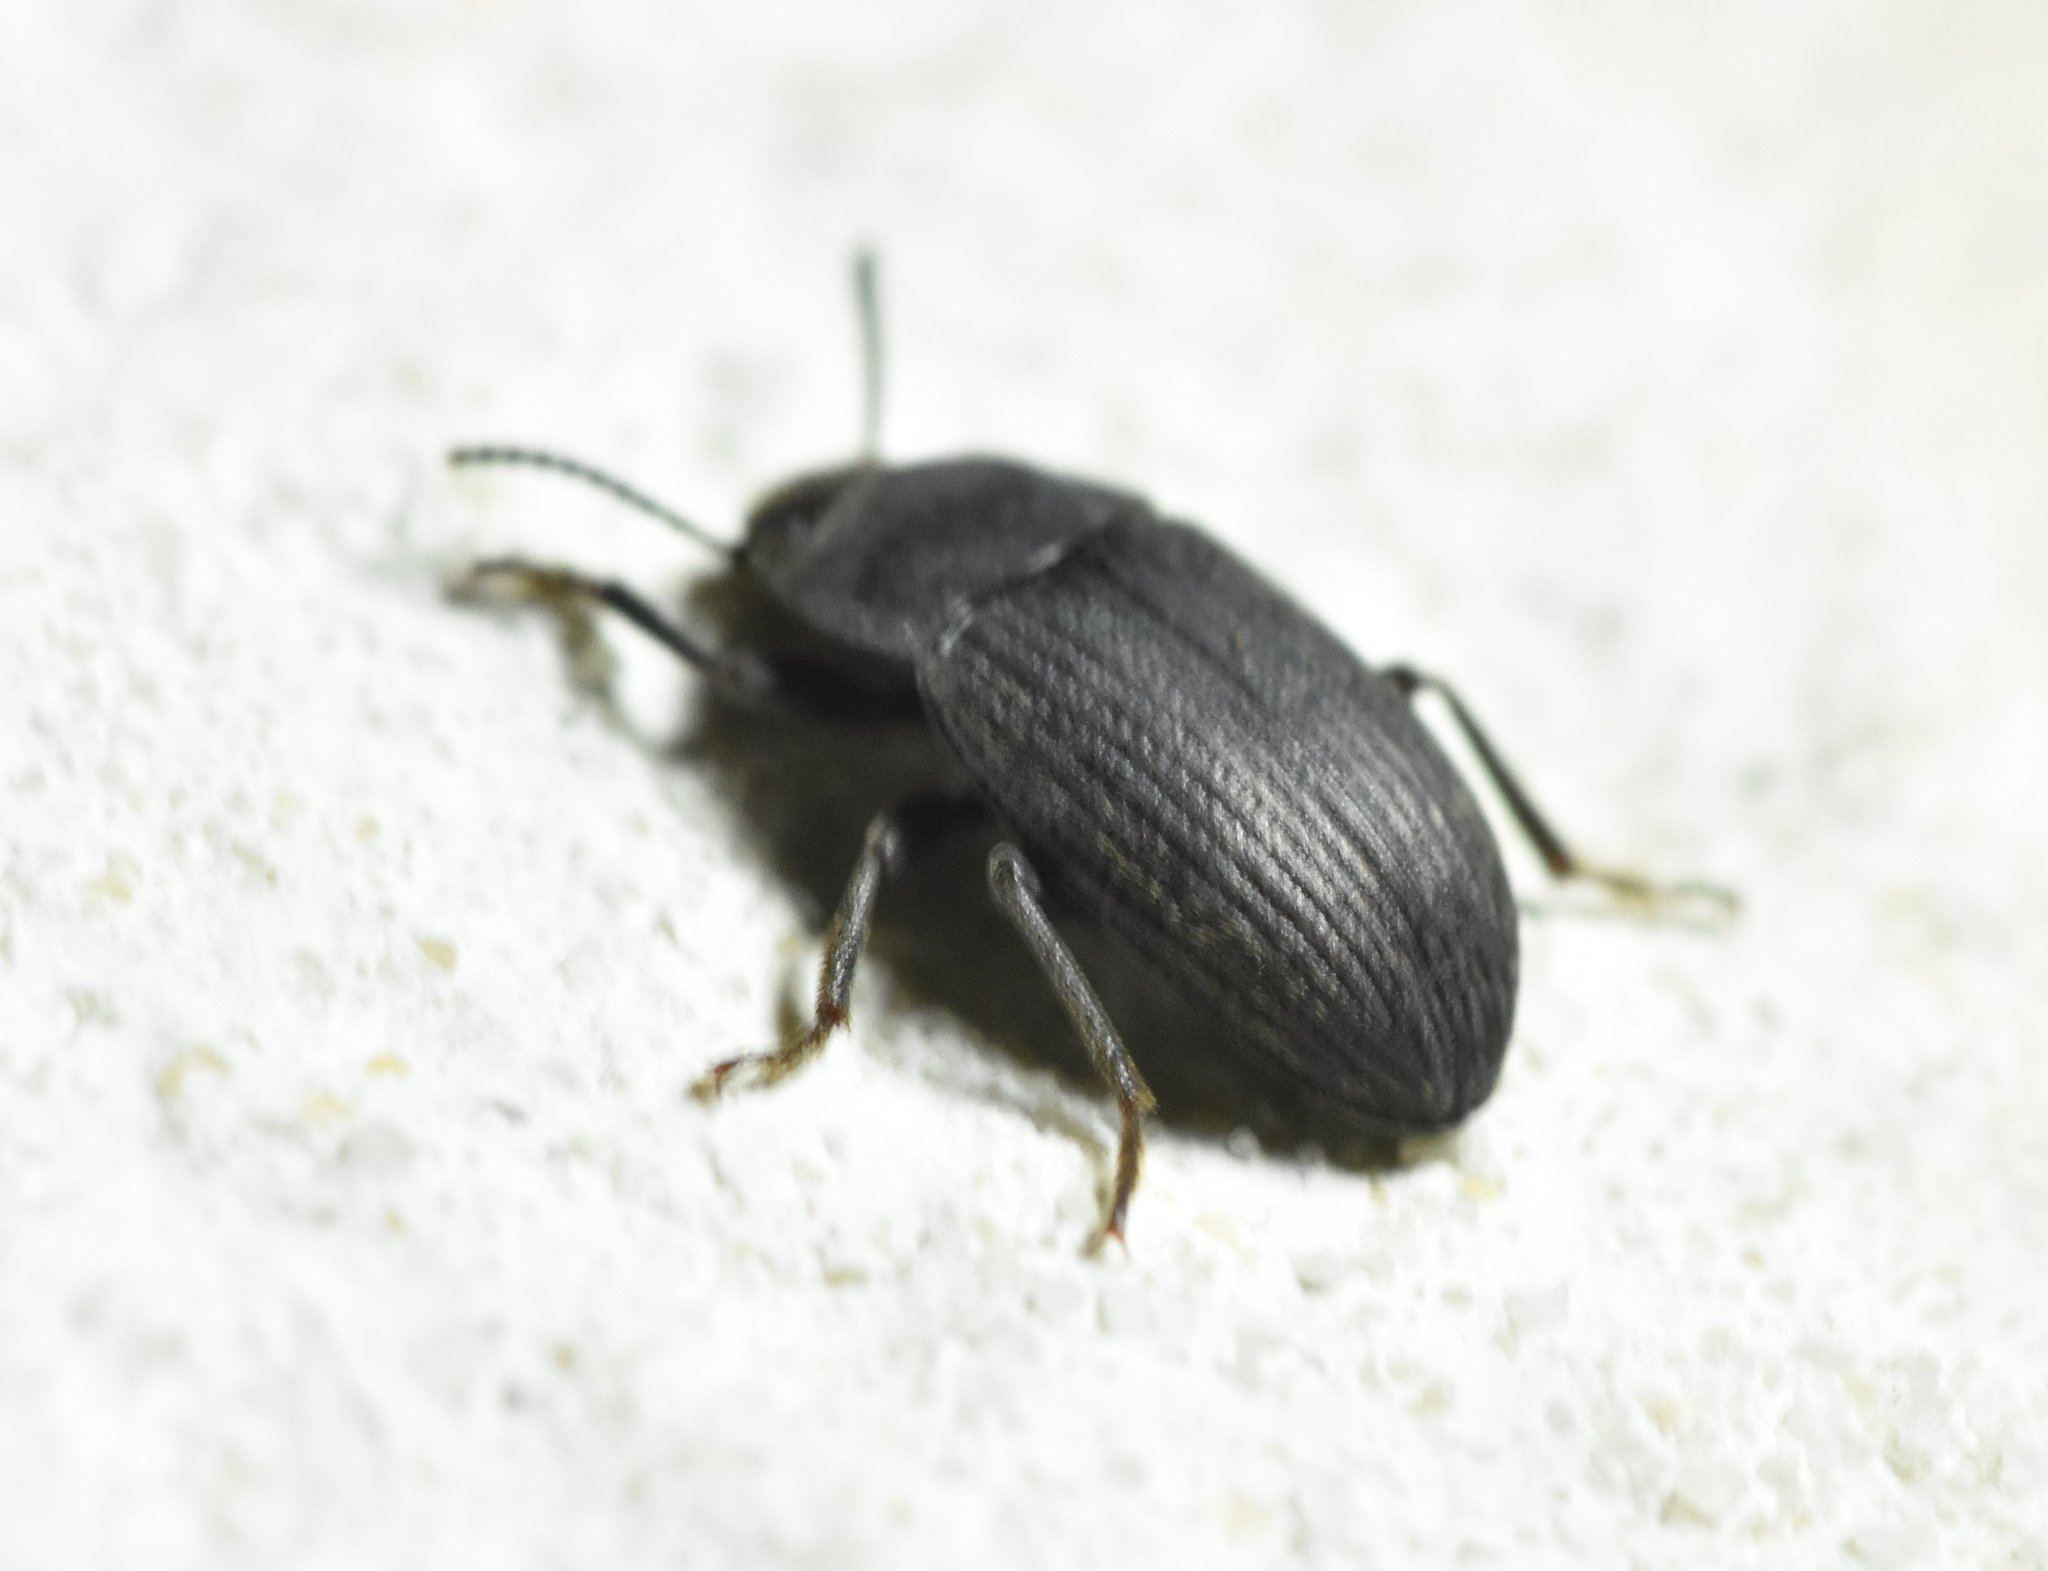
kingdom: Animalia
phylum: Arthropoda
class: Insecta
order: Coleoptera
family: Tenebrionidae
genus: Blapstinus
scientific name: Blapstinus fortis
